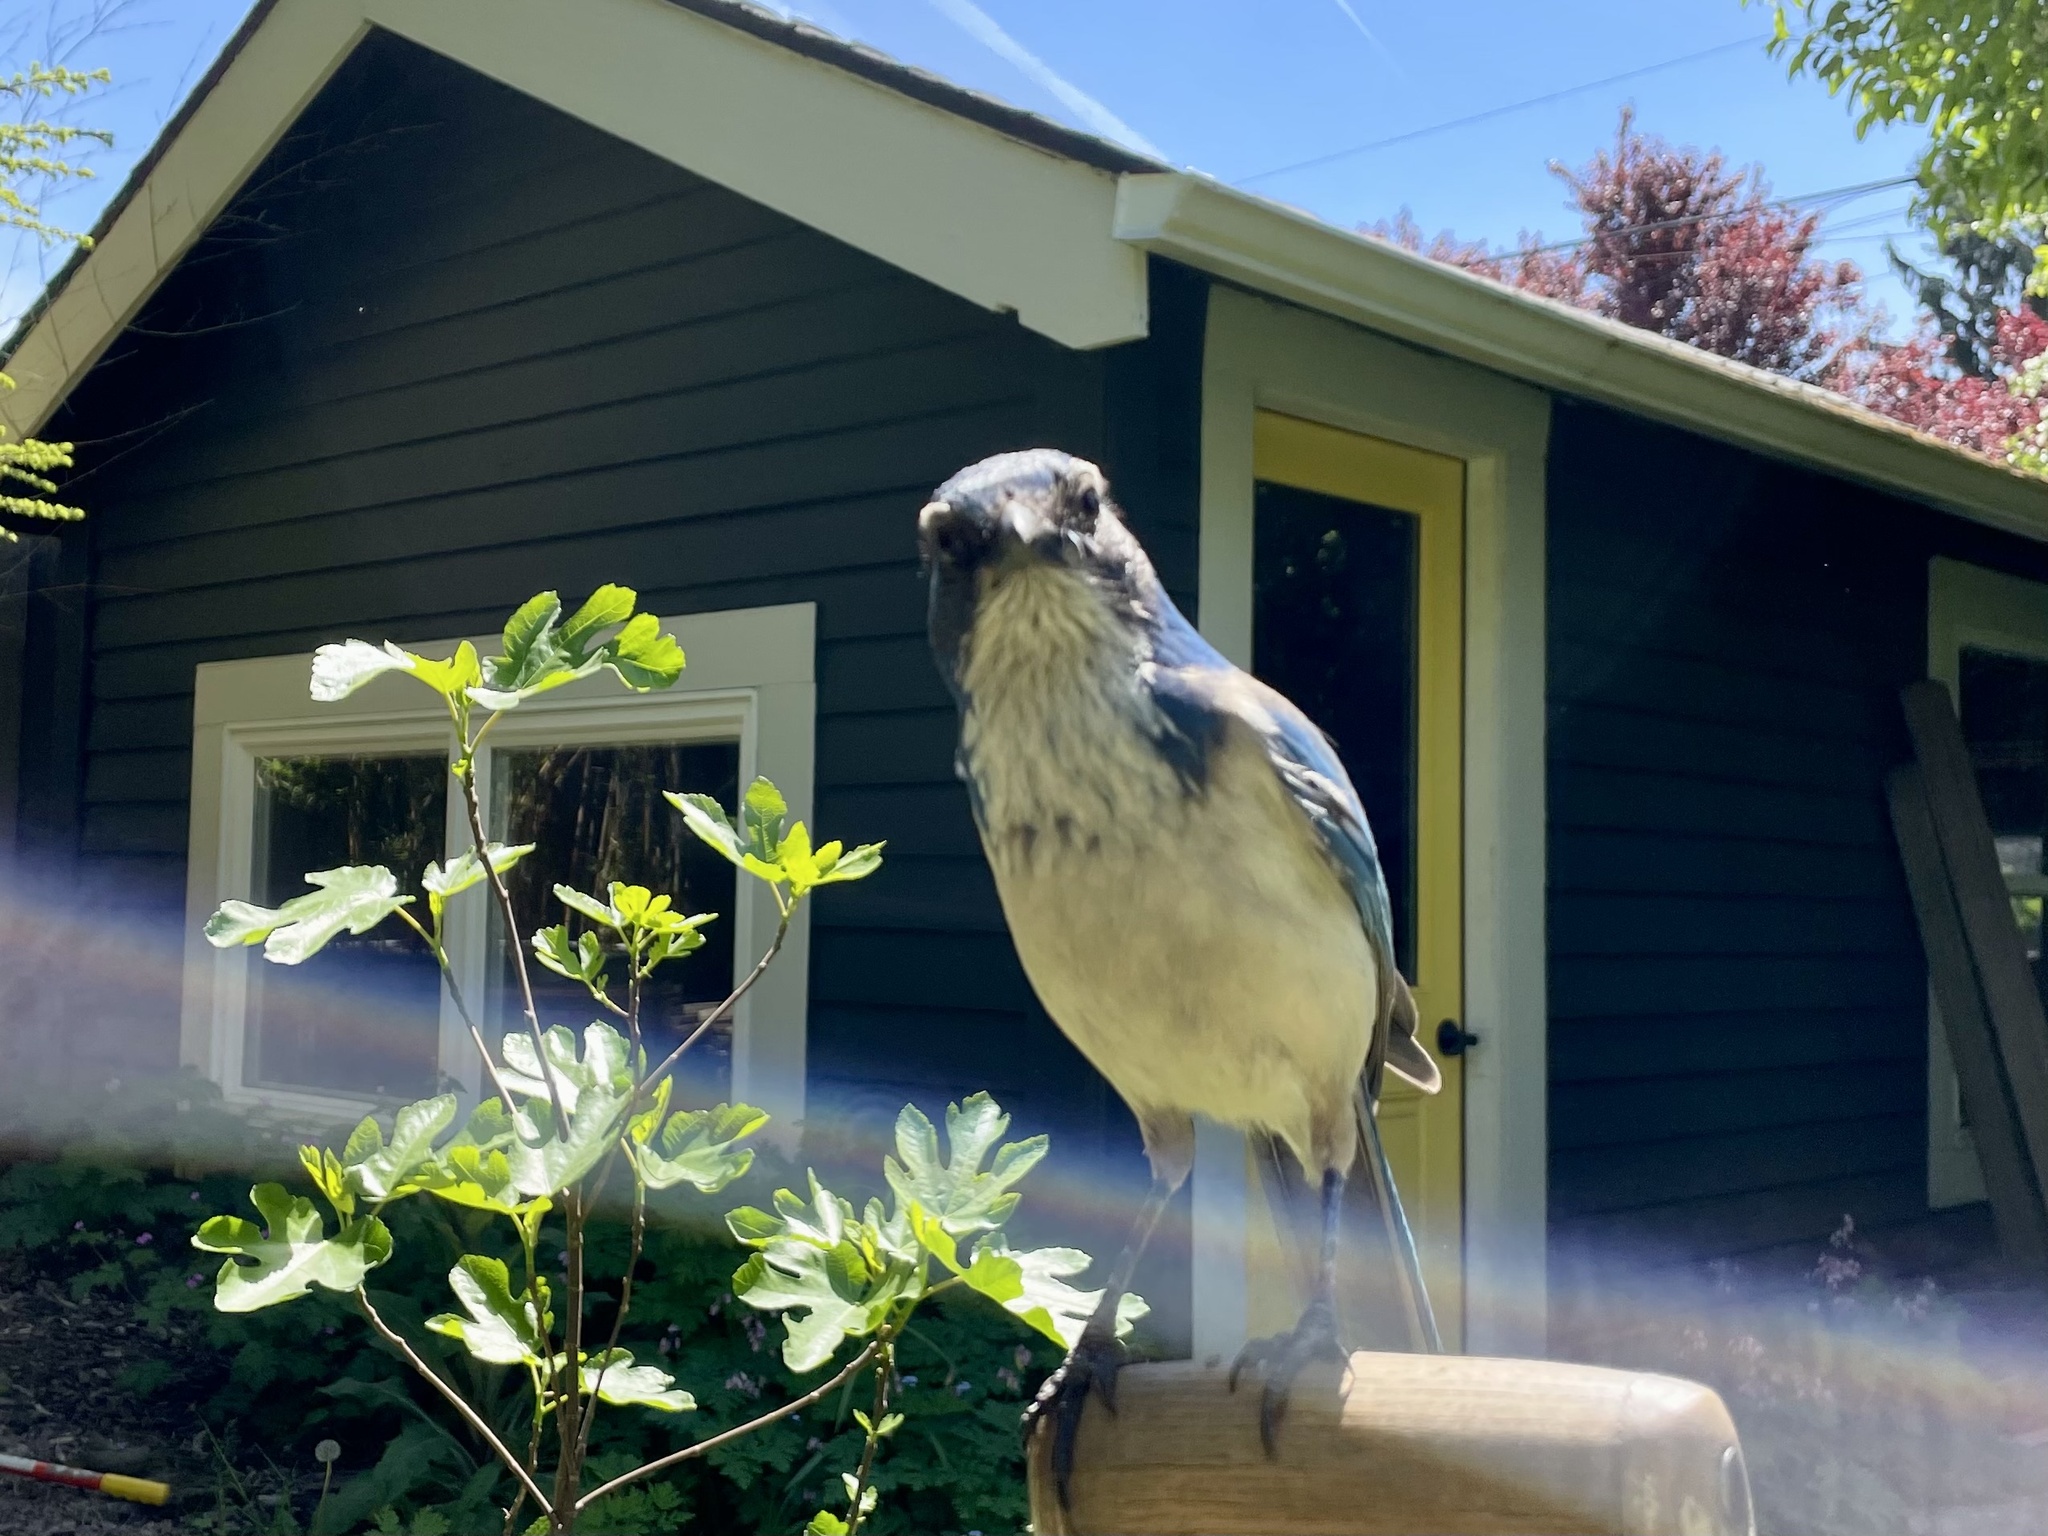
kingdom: Animalia
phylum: Chordata
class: Aves
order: Passeriformes
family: Corvidae
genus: Aphelocoma
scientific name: Aphelocoma californica
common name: California scrub-jay
